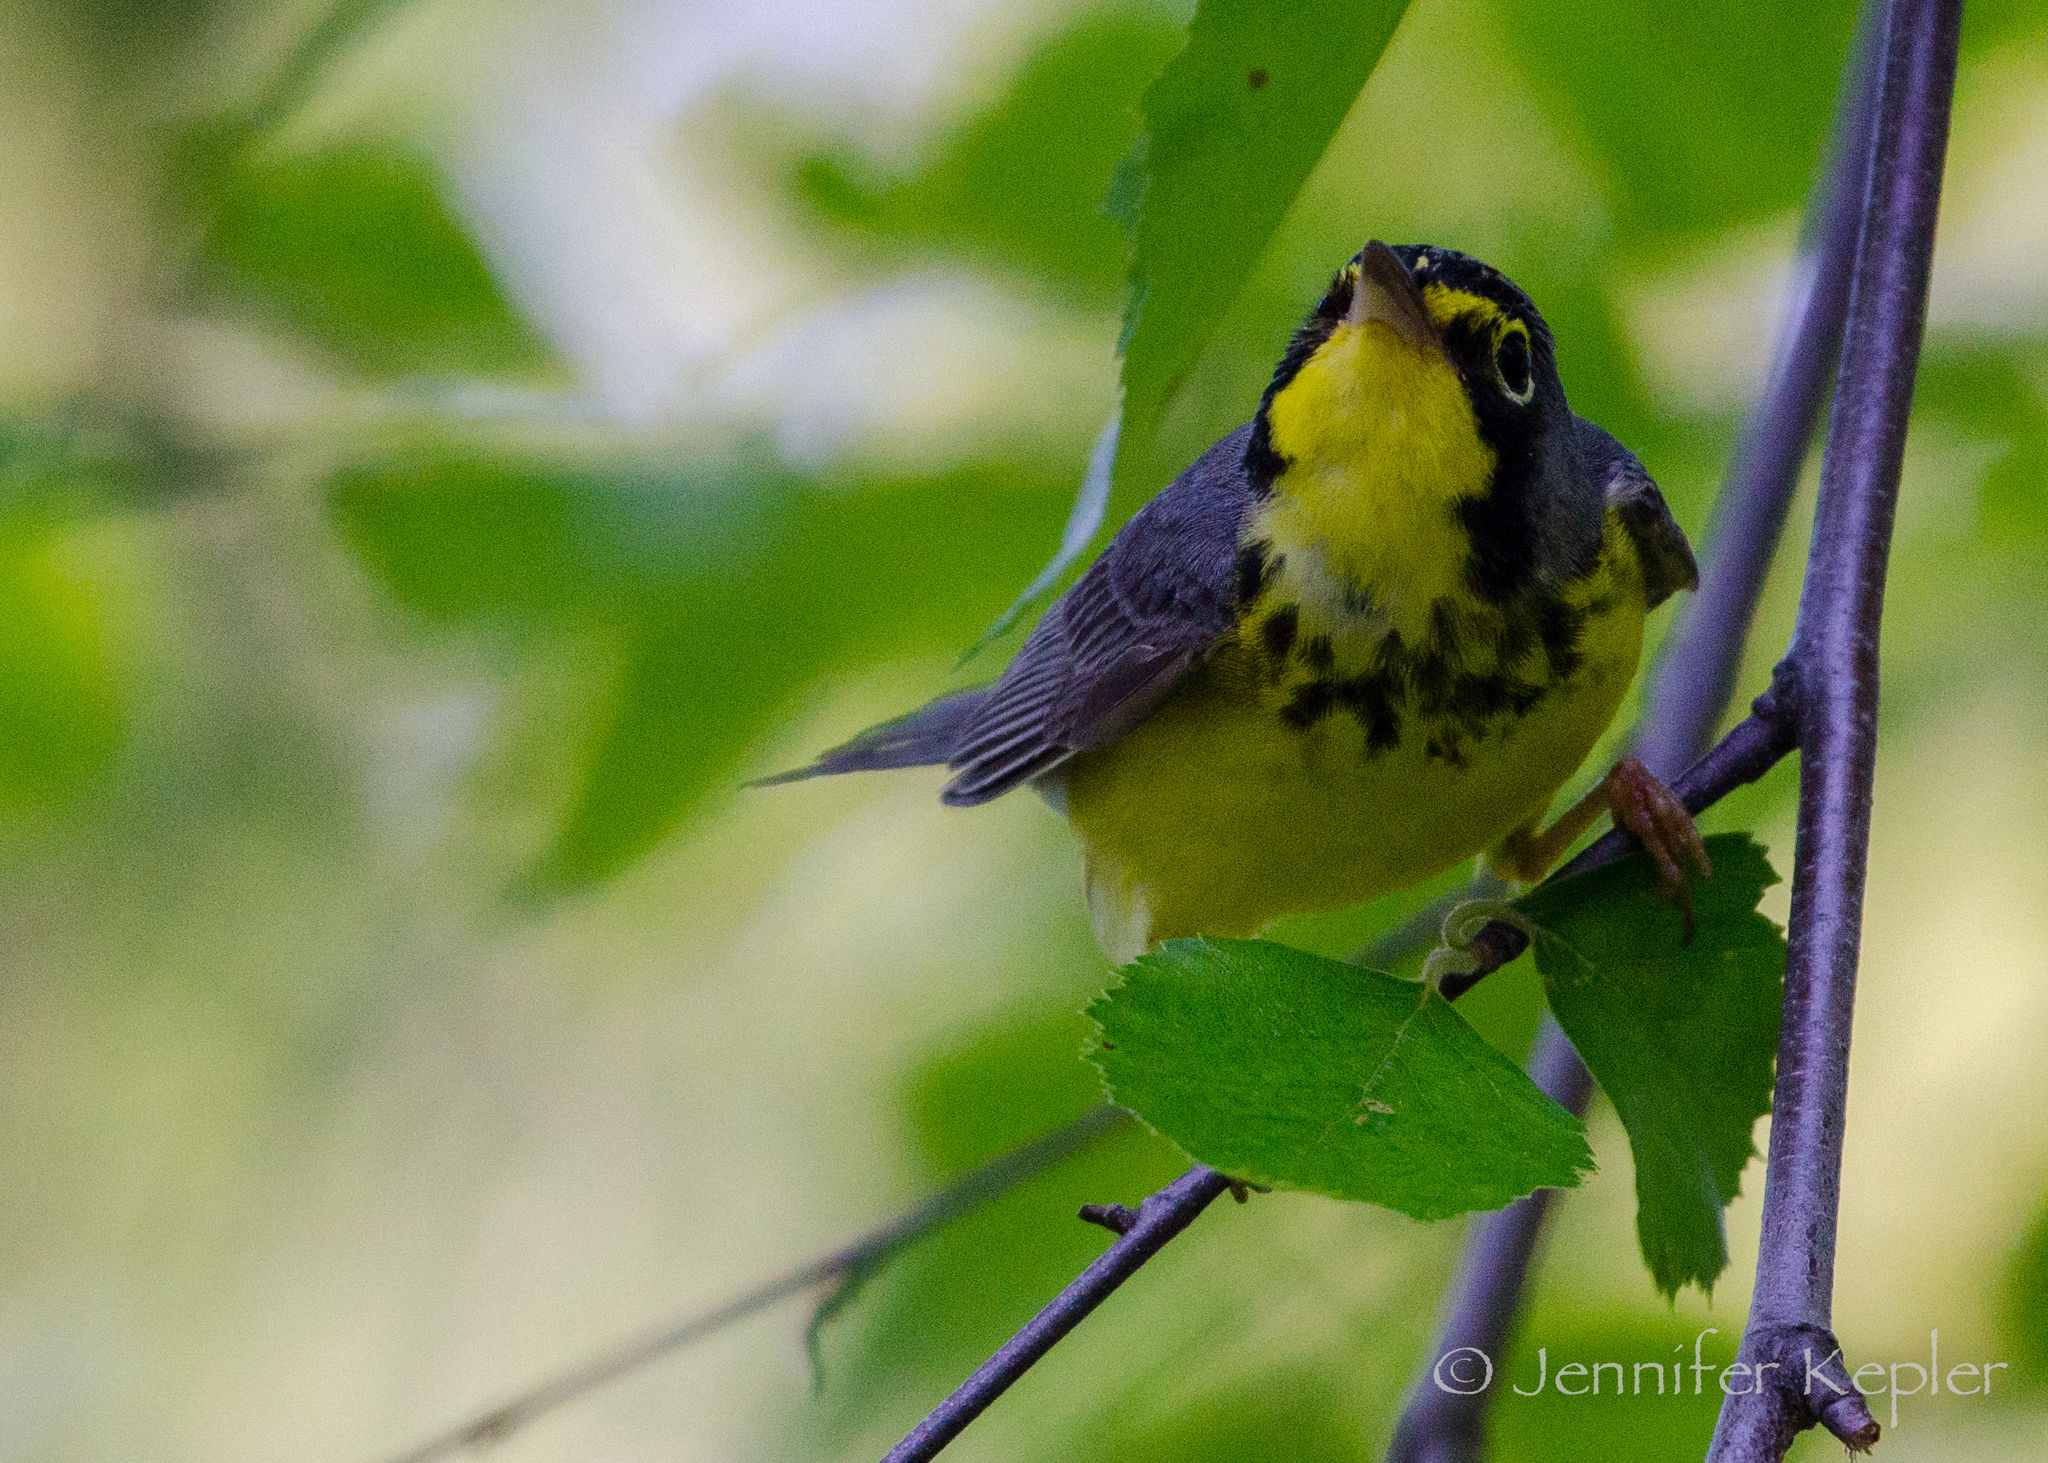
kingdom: Animalia
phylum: Chordata
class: Aves
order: Passeriformes
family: Parulidae
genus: Cardellina
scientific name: Cardellina canadensis
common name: Canada warbler
